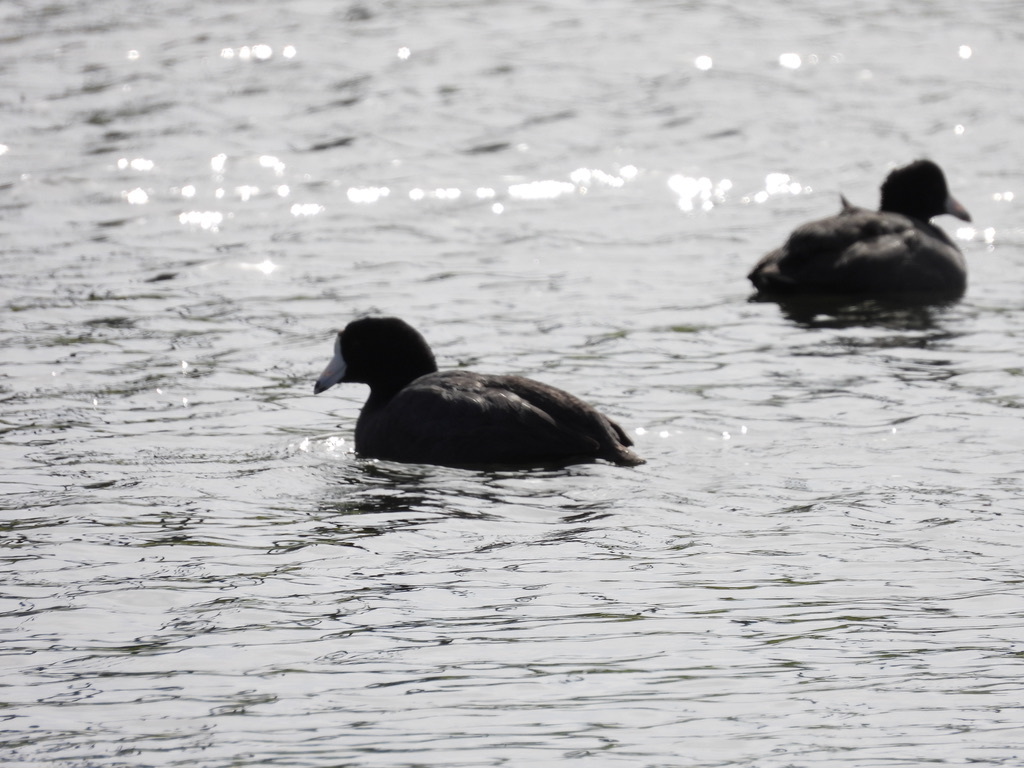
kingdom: Animalia
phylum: Chordata
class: Aves
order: Gruiformes
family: Rallidae
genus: Fulica
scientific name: Fulica americana
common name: American coot
